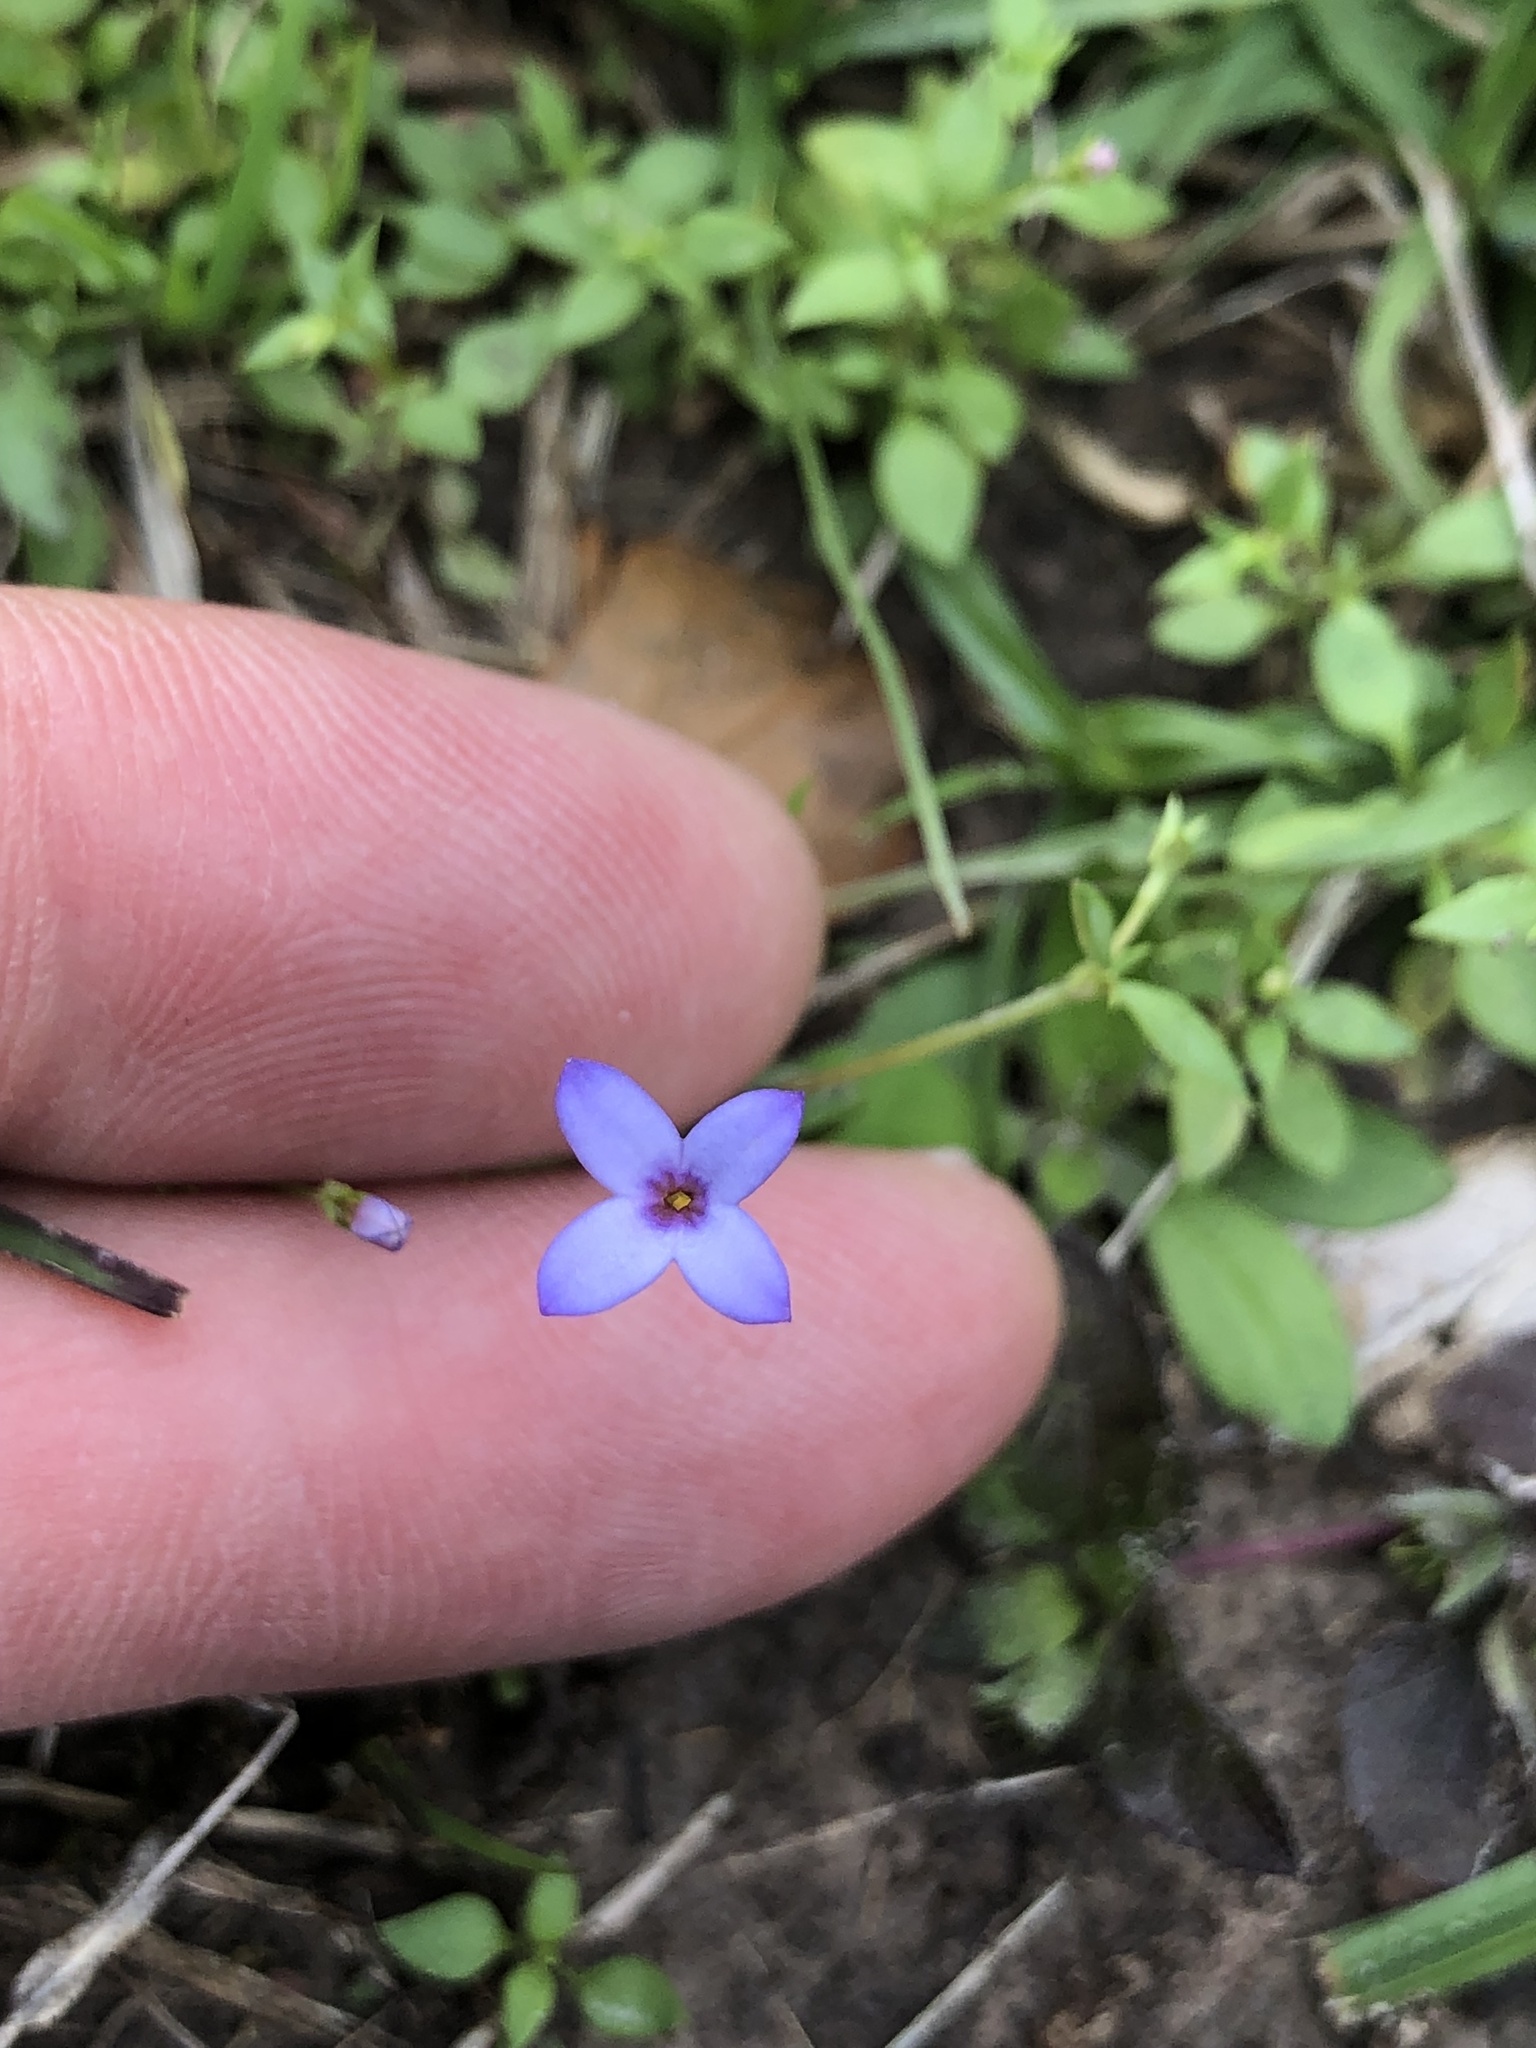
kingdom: Plantae
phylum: Tracheophyta
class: Magnoliopsida
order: Gentianales
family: Rubiaceae
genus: Houstonia
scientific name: Houstonia pusilla
